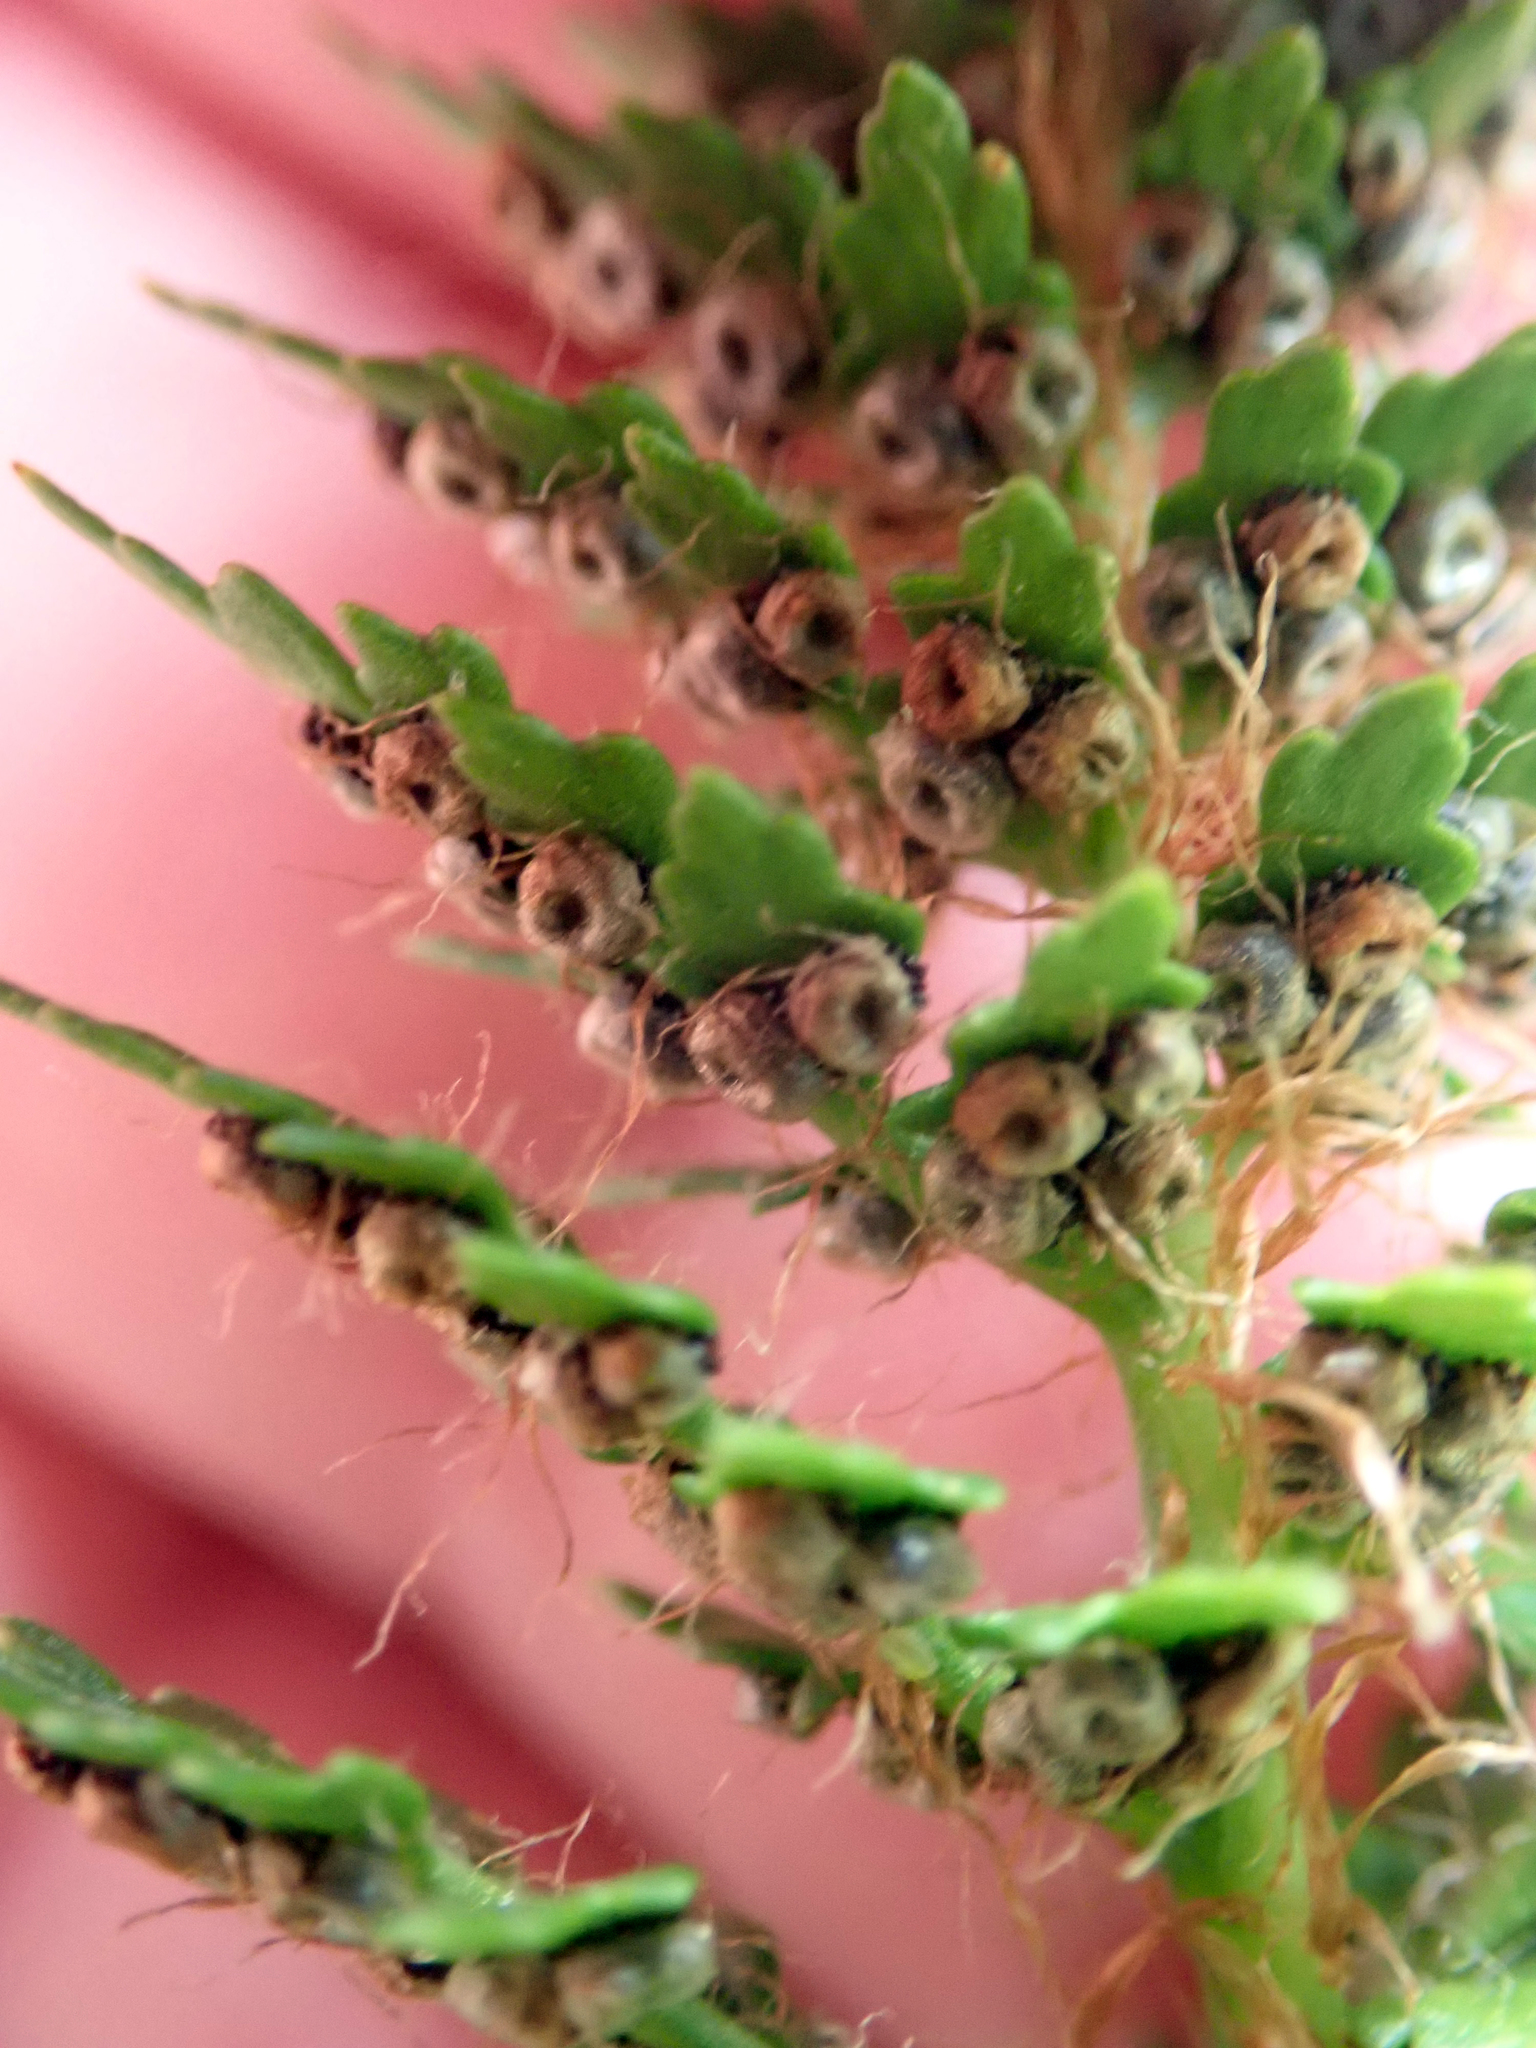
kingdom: Plantae
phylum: Tracheophyta
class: Polypodiopsida
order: Polypodiales
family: Dryopteridaceae
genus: Polystichum
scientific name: Polystichum cystostegia
